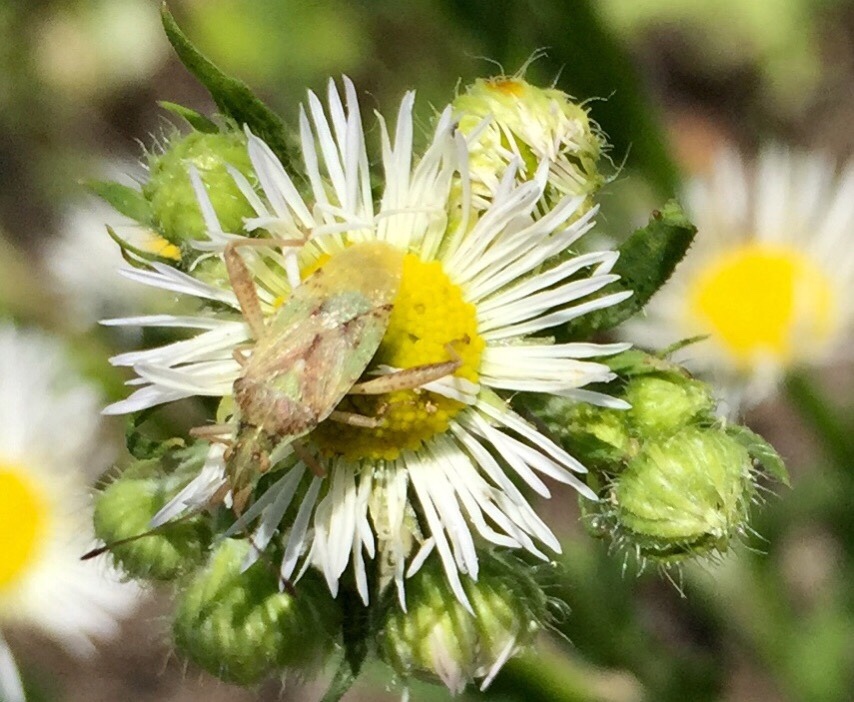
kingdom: Animalia
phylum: Arthropoda
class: Insecta
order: Hemiptera
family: Rhopalidae
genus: Harmostes
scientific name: Harmostes reflexulus
